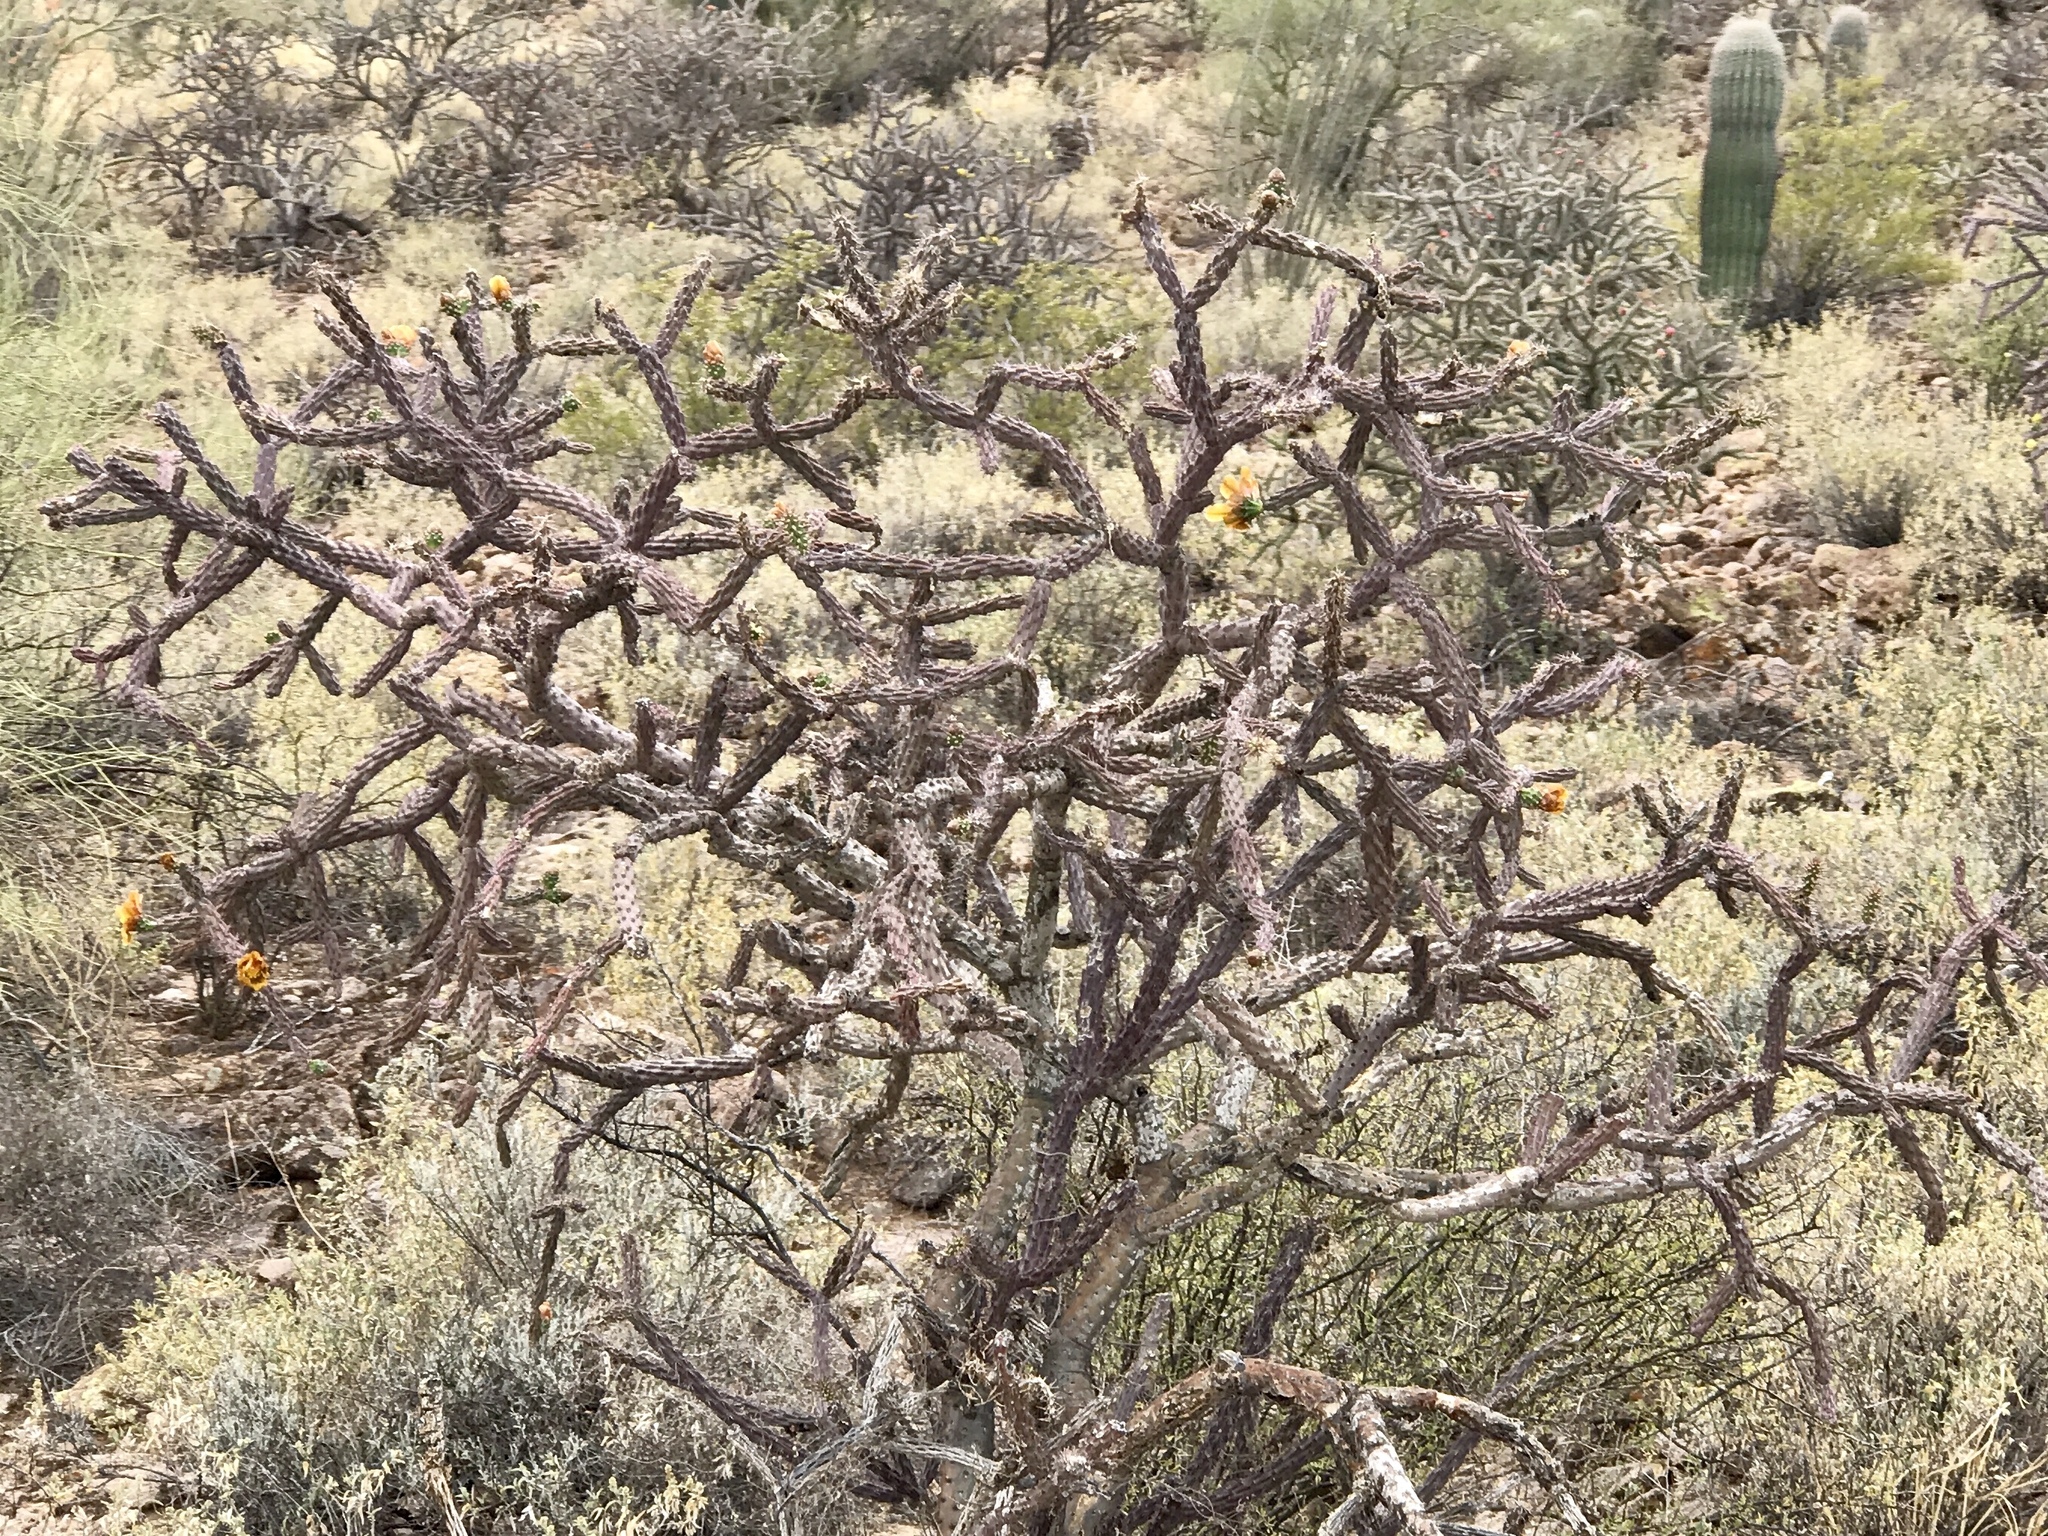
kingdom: Plantae
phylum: Tracheophyta
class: Magnoliopsida
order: Caryophyllales
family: Cactaceae
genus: Cylindropuntia
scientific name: Cylindropuntia thurberi
